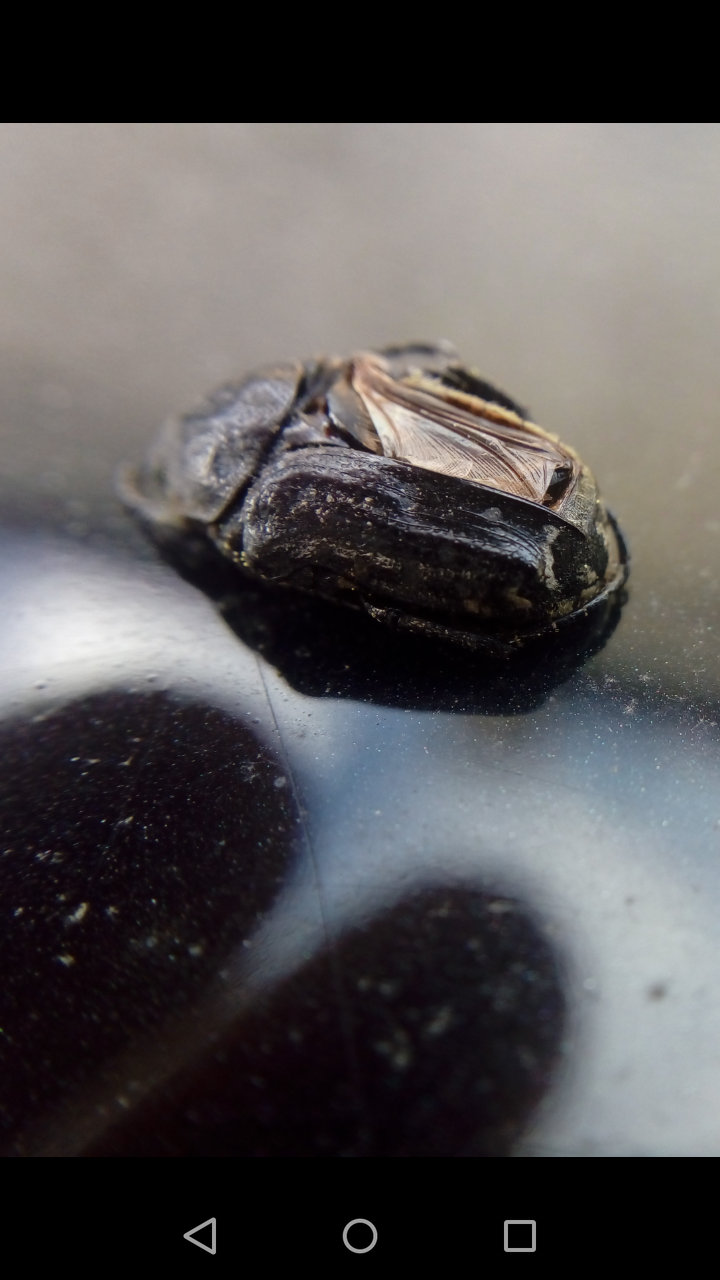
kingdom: Animalia
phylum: Arthropoda
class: Insecta
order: Coleoptera
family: Scarabaeidae
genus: Oxythyrea
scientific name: Oxythyrea funesta
